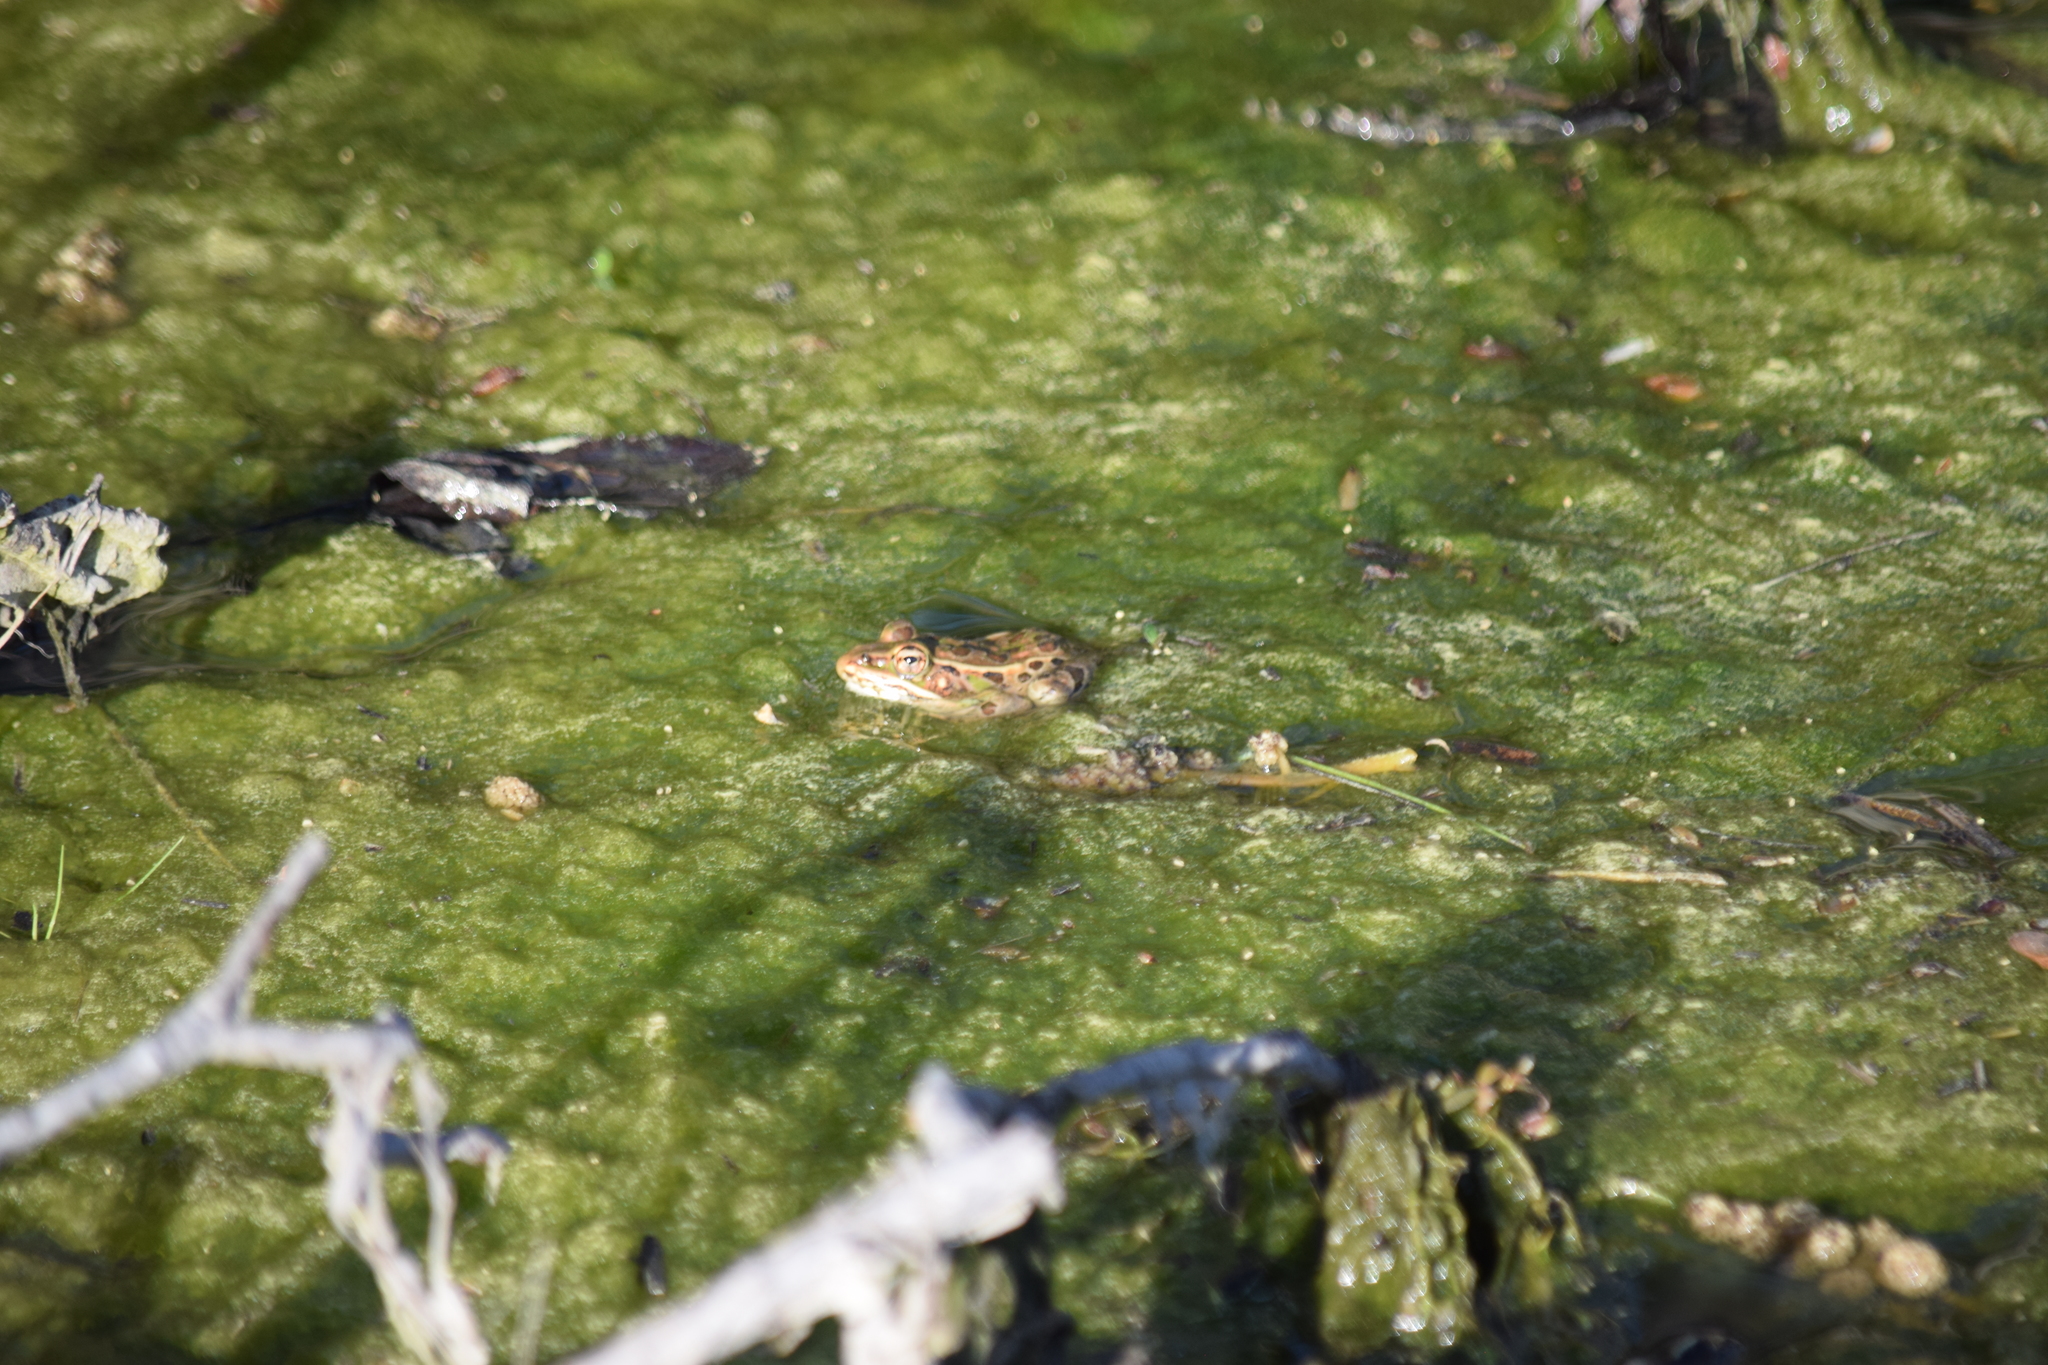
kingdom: Animalia
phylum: Chordata
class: Amphibia
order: Anura
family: Ranidae
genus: Lithobates
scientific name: Lithobates sphenocephalus
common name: Southern leopard frog
